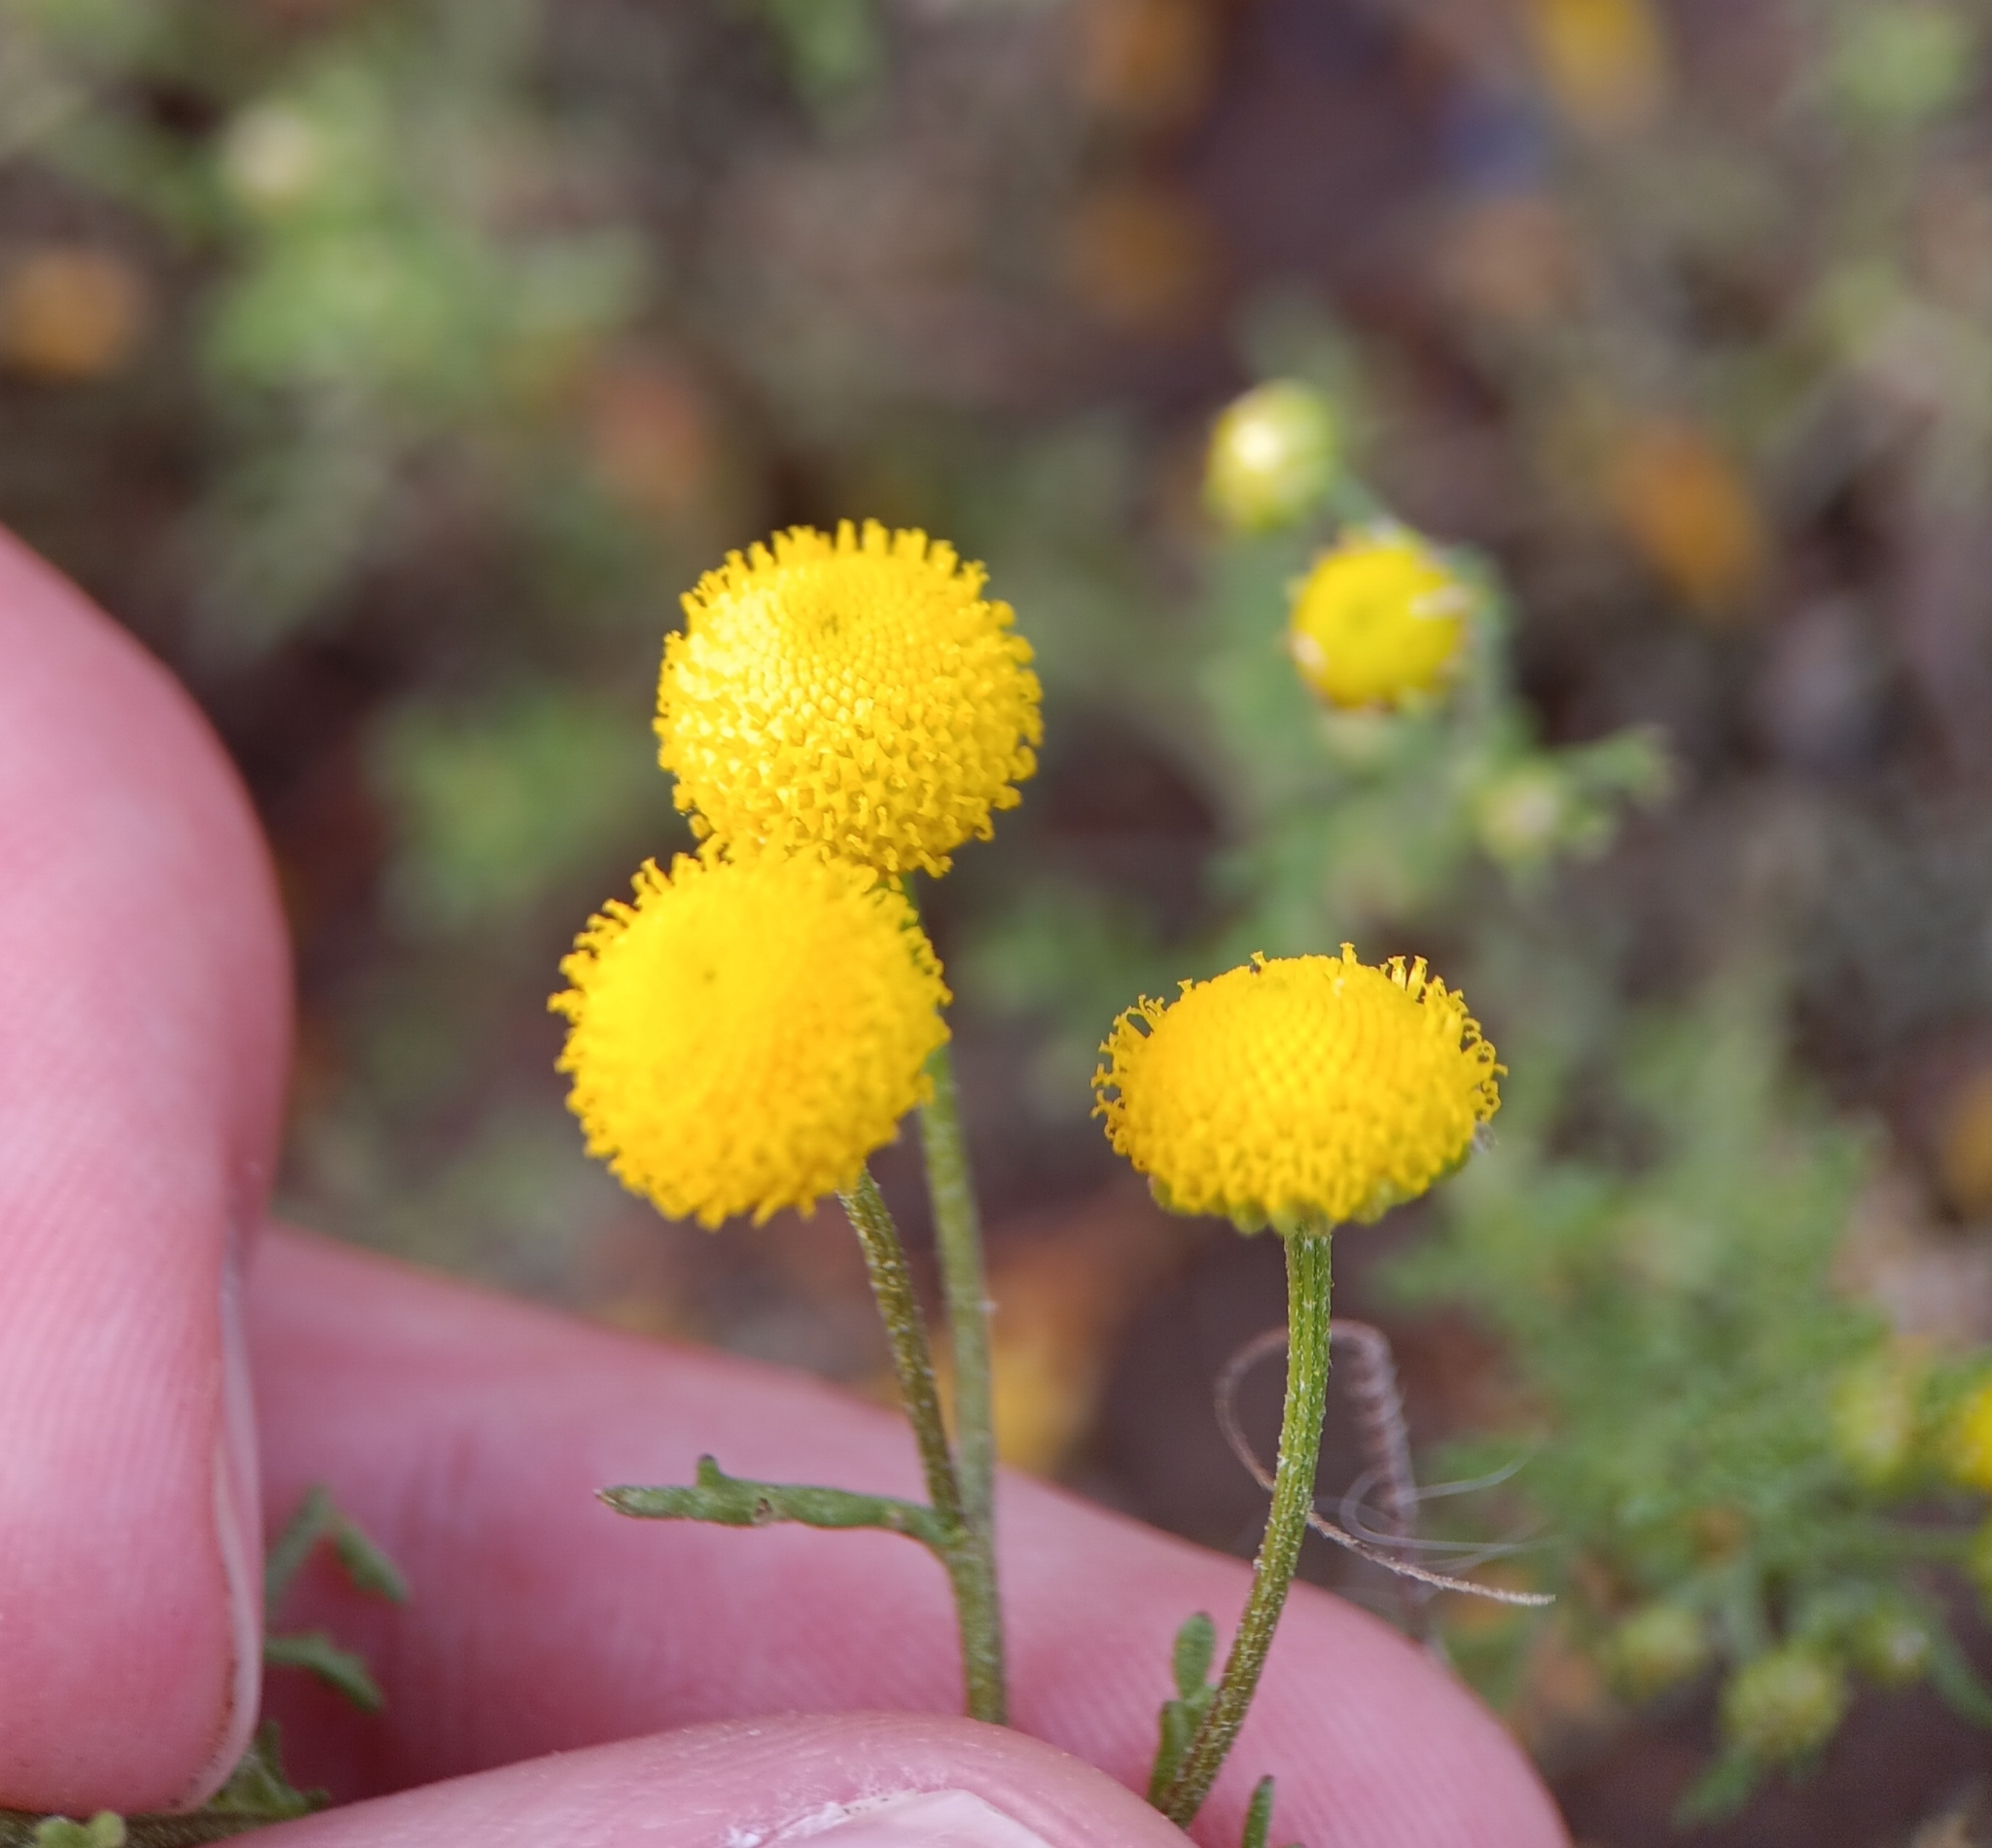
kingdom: Plantae
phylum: Tracheophyta
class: Magnoliopsida
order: Asterales
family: Asteraceae
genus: Oncosiphon
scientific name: Oncosiphon pilulifer
